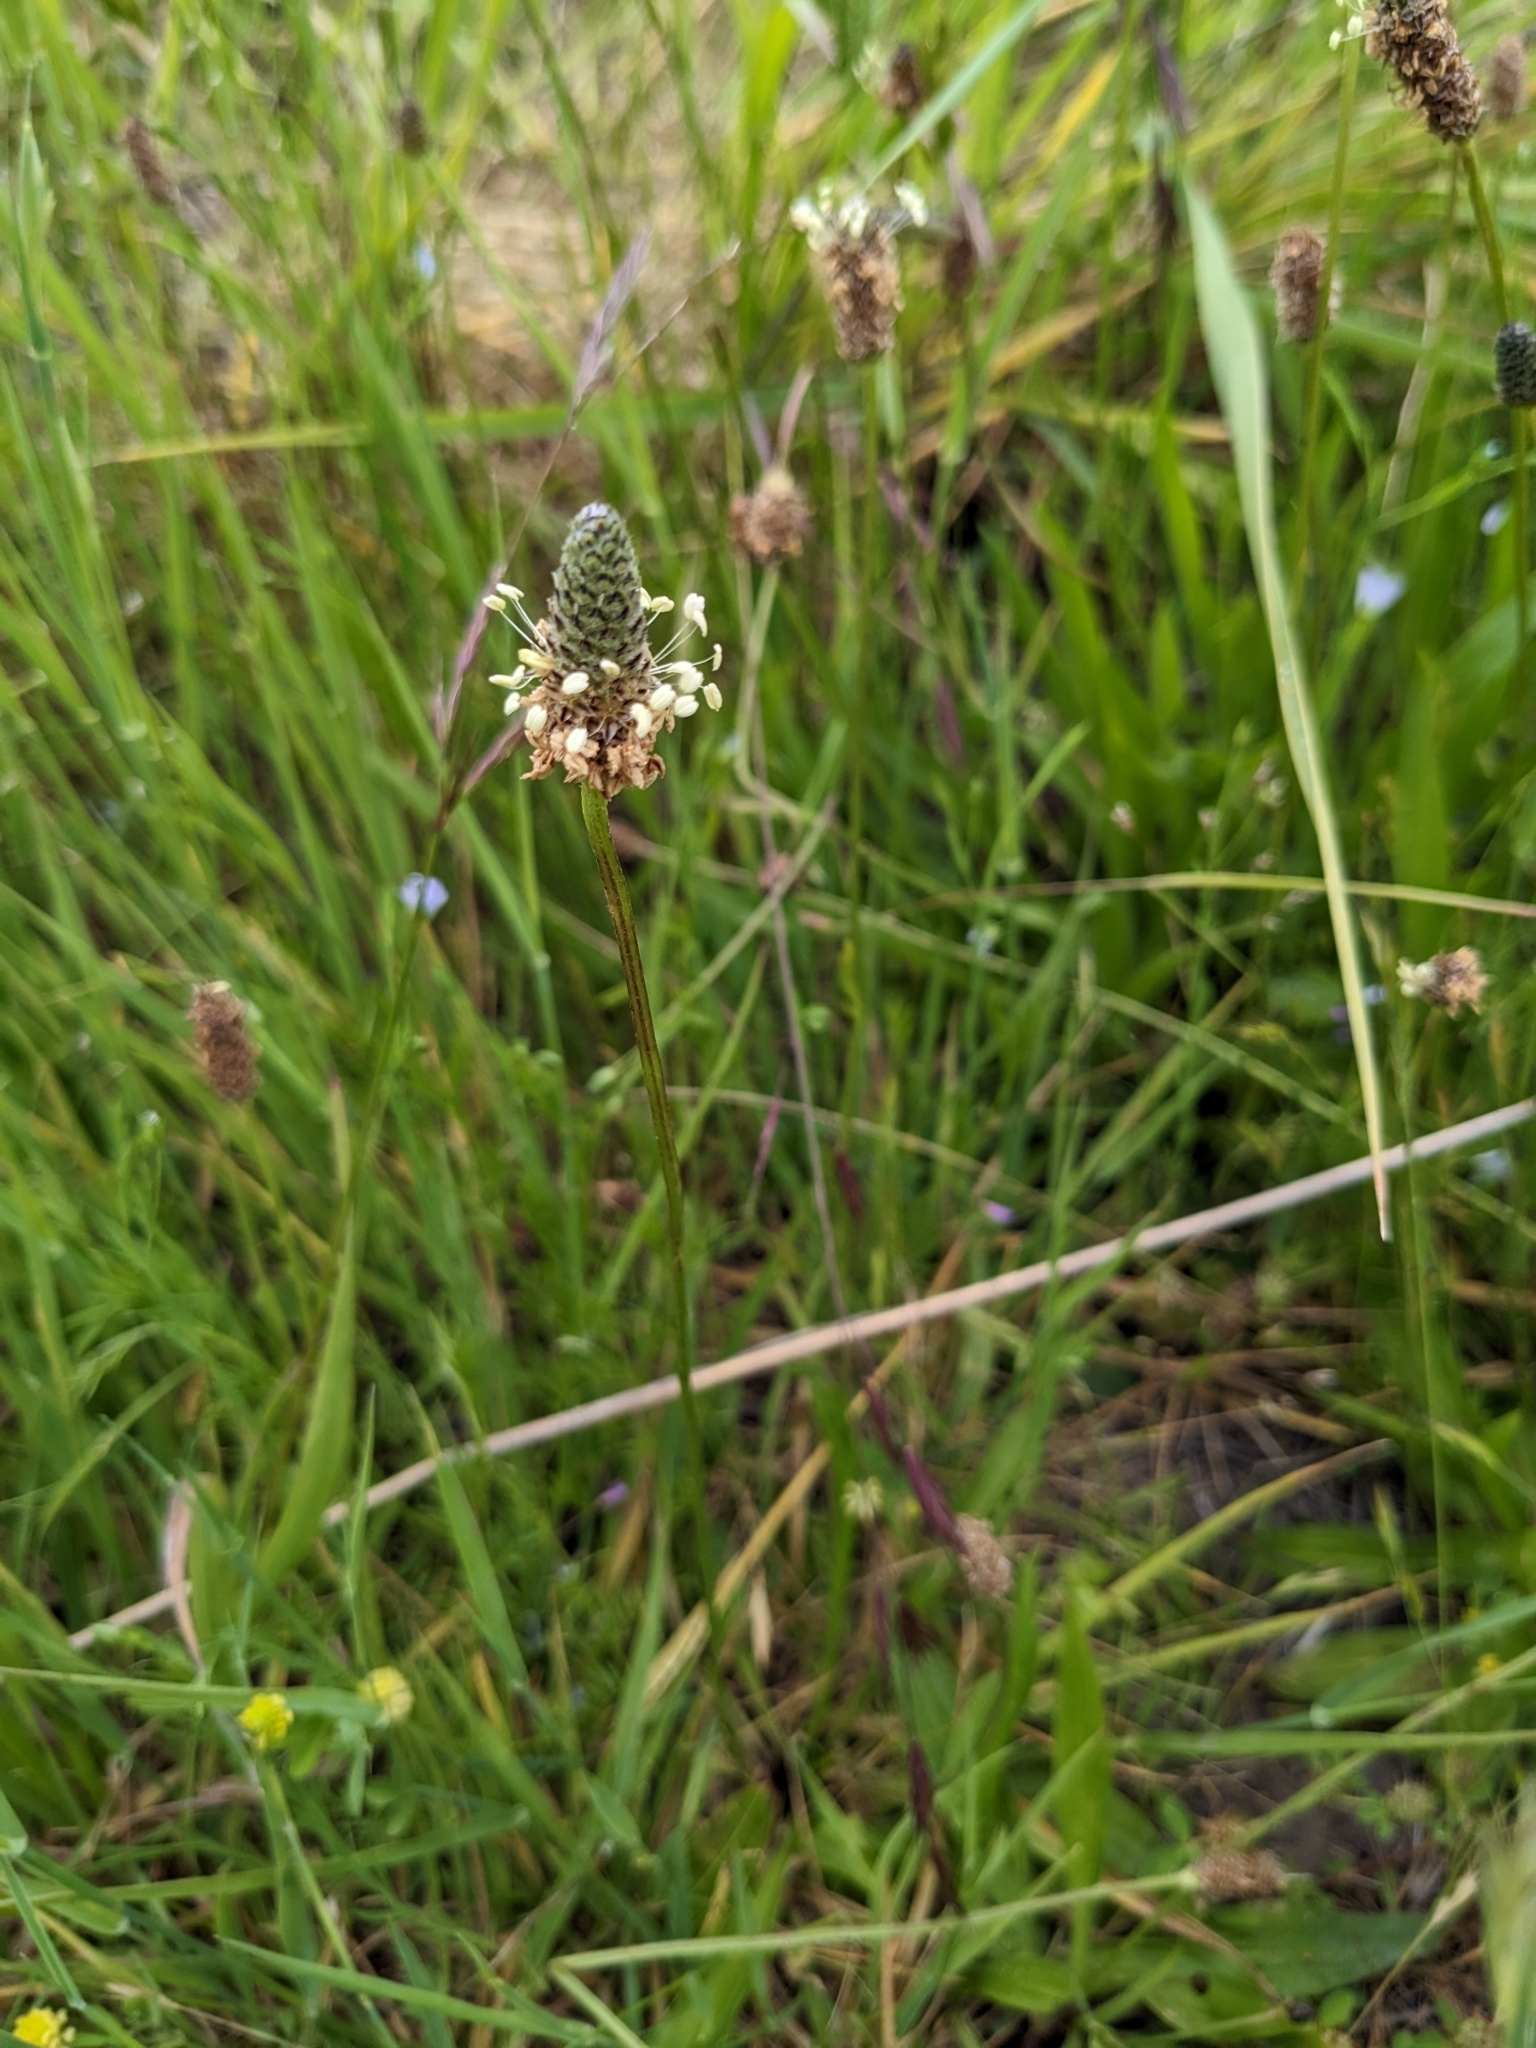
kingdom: Plantae
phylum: Tracheophyta
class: Magnoliopsida
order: Lamiales
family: Plantaginaceae
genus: Plantago
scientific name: Plantago lanceolata
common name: Ribwort plantain
